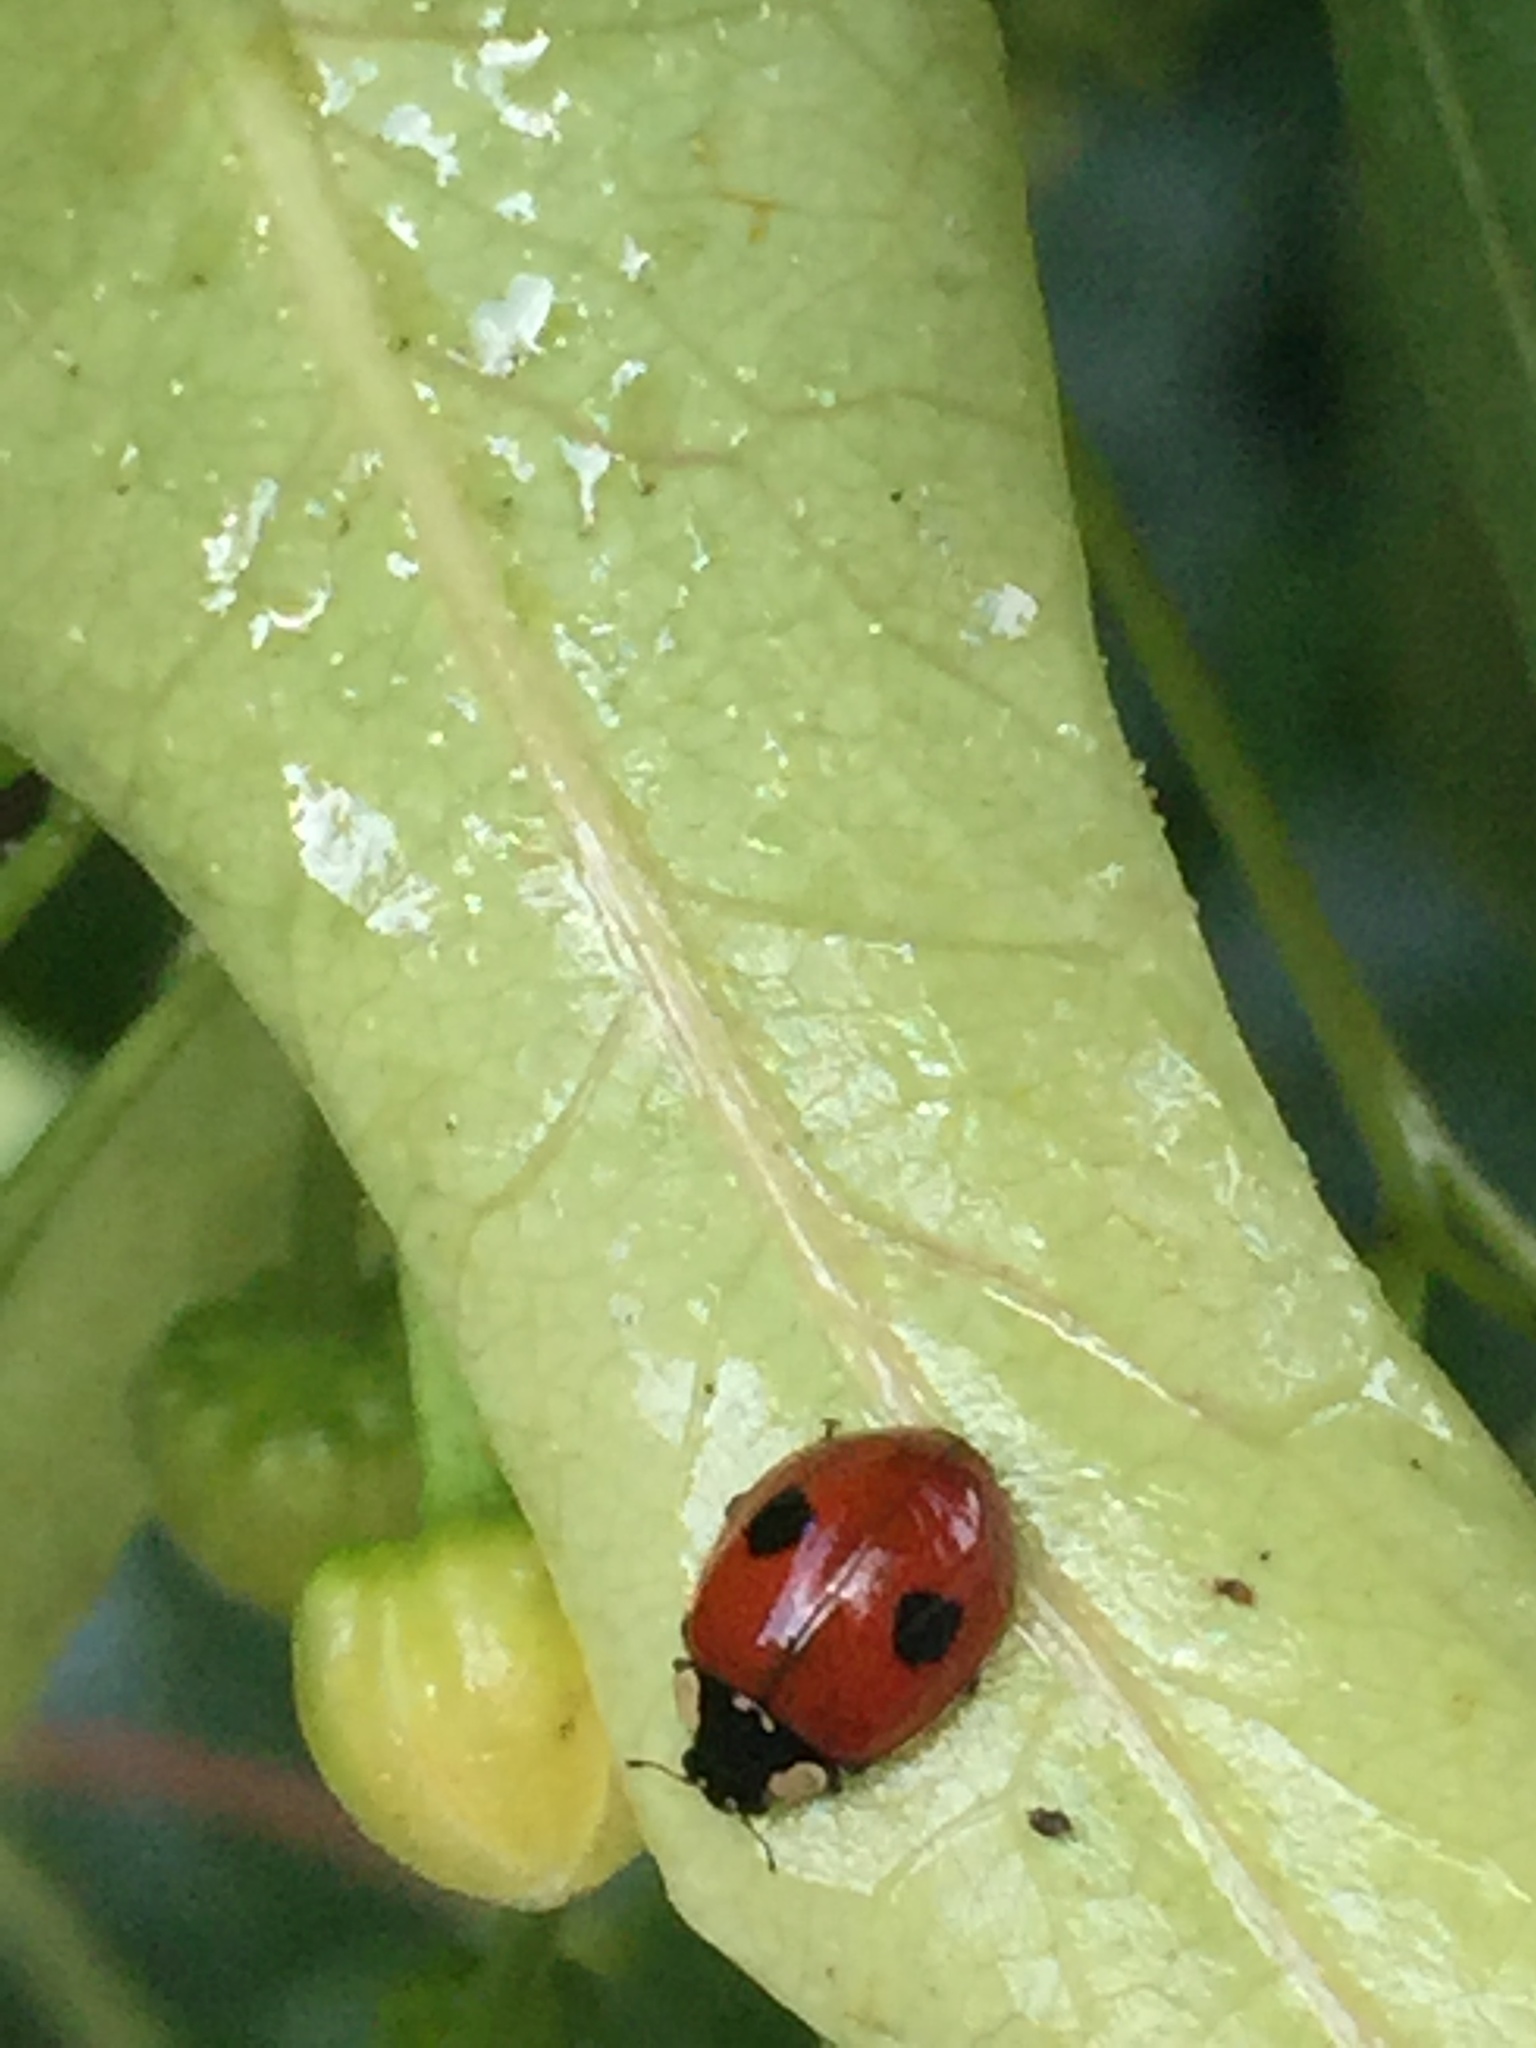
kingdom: Animalia
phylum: Arthropoda
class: Insecta
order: Coleoptera
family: Coccinellidae
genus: Adalia
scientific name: Adalia bipunctata
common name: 2-spot ladybird
